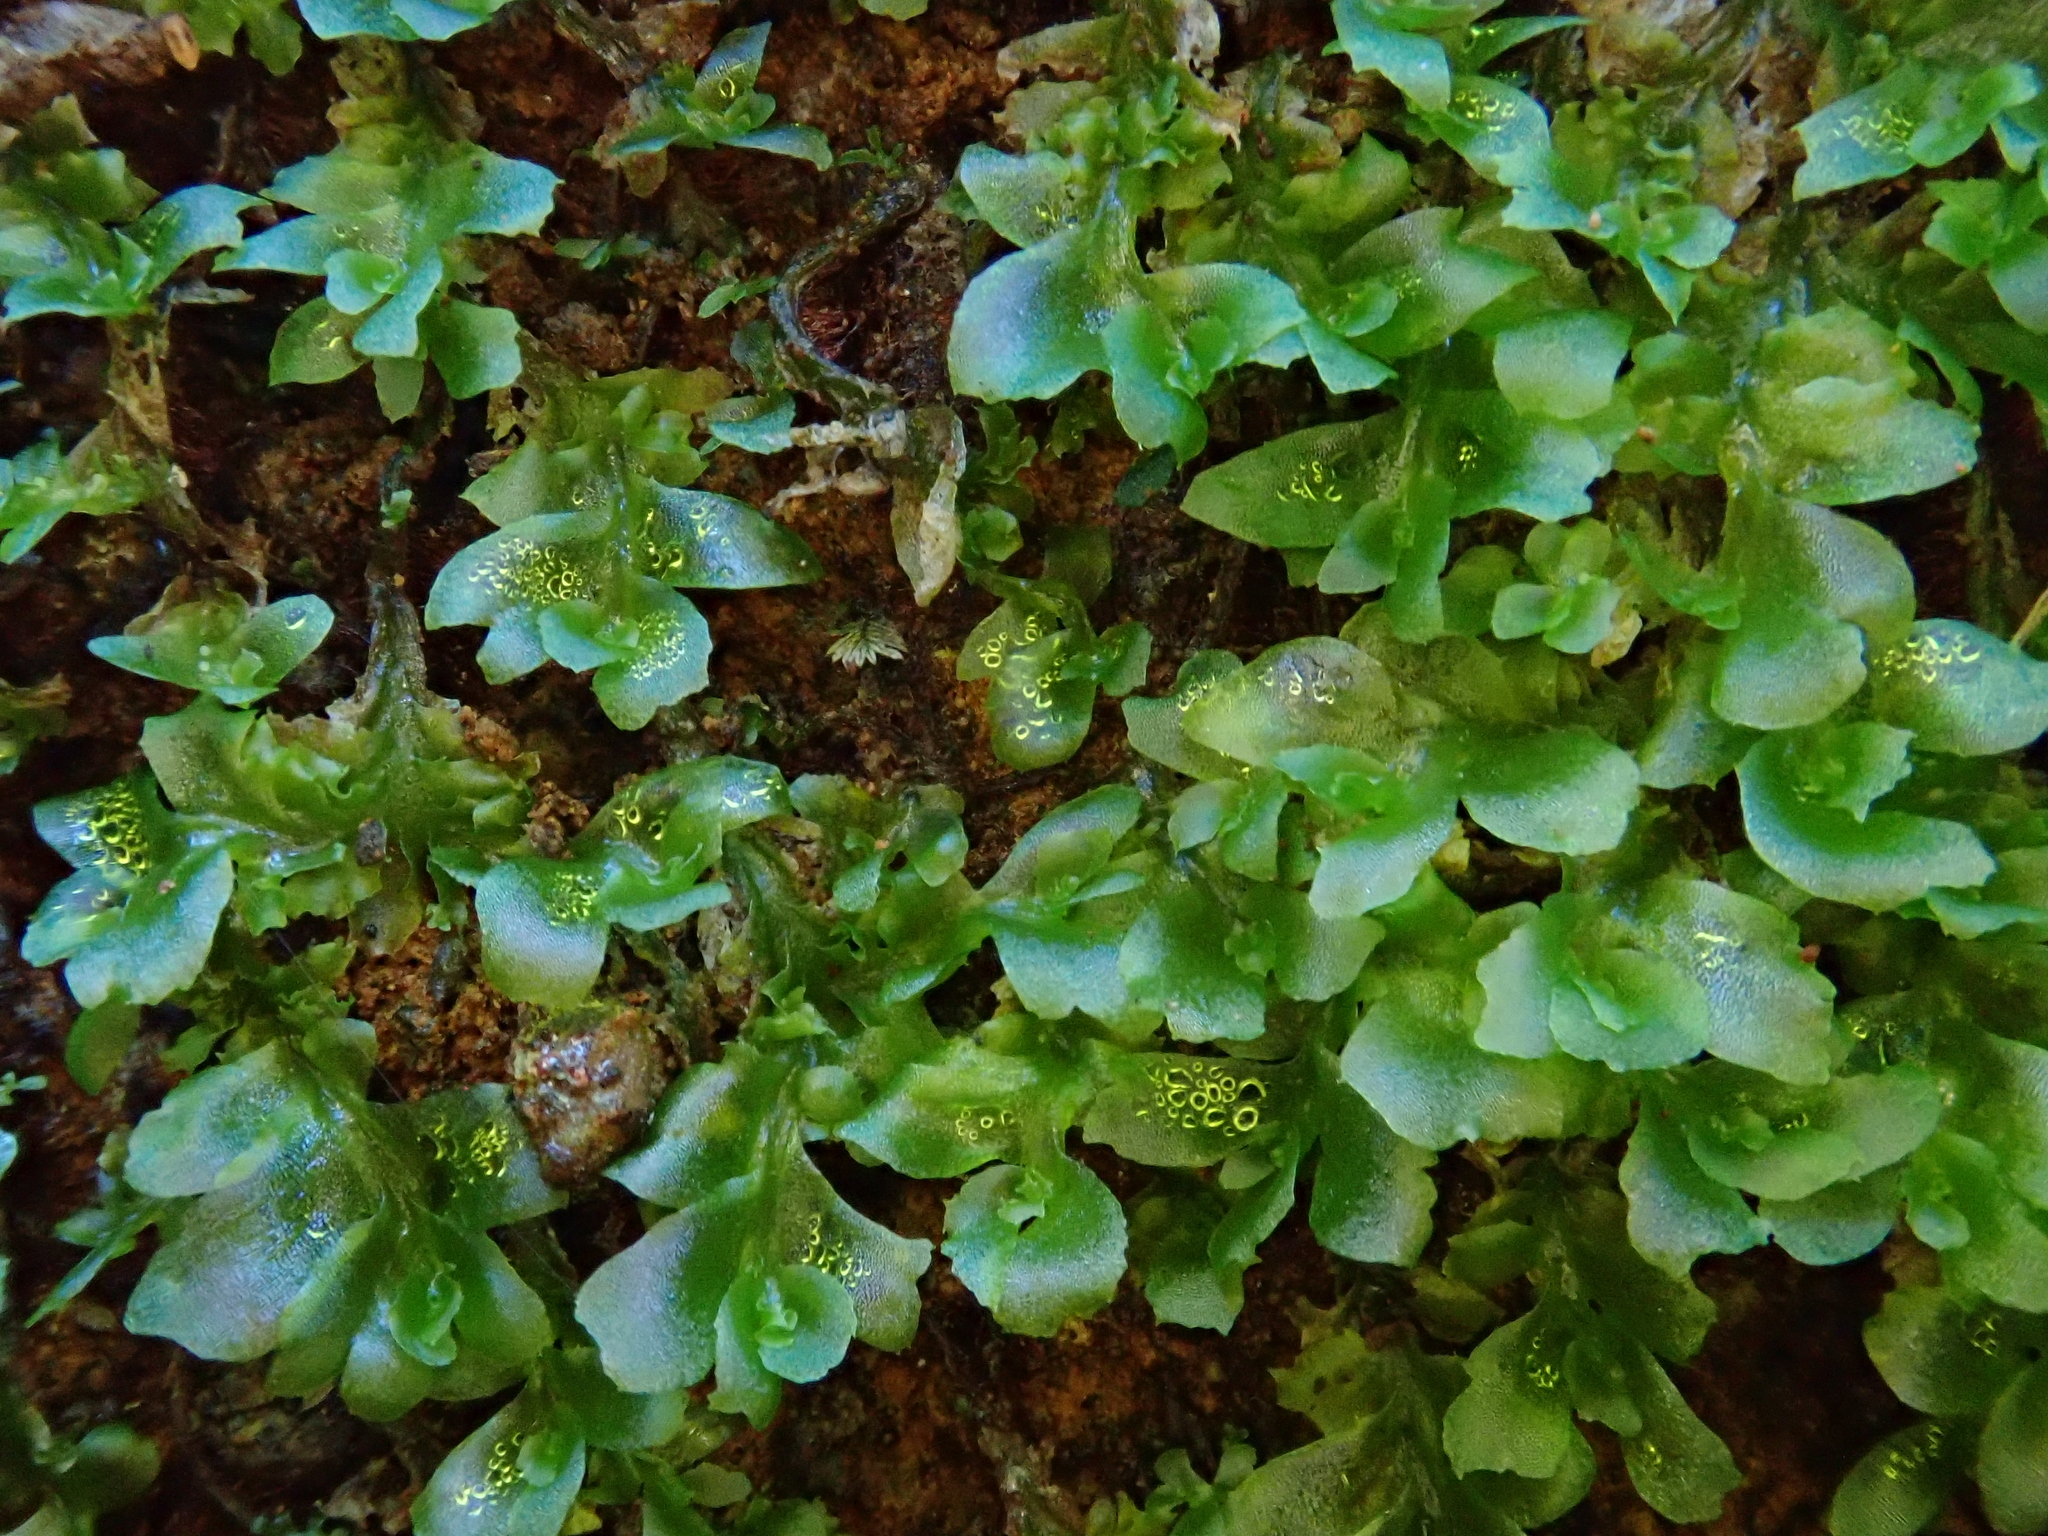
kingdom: Plantae
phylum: Marchantiophyta
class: Jungermanniopsida
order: Fossombroniales
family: Fossombroniaceae
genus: Fossombronia
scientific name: Fossombronia angulosa
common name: Greater frillwort
